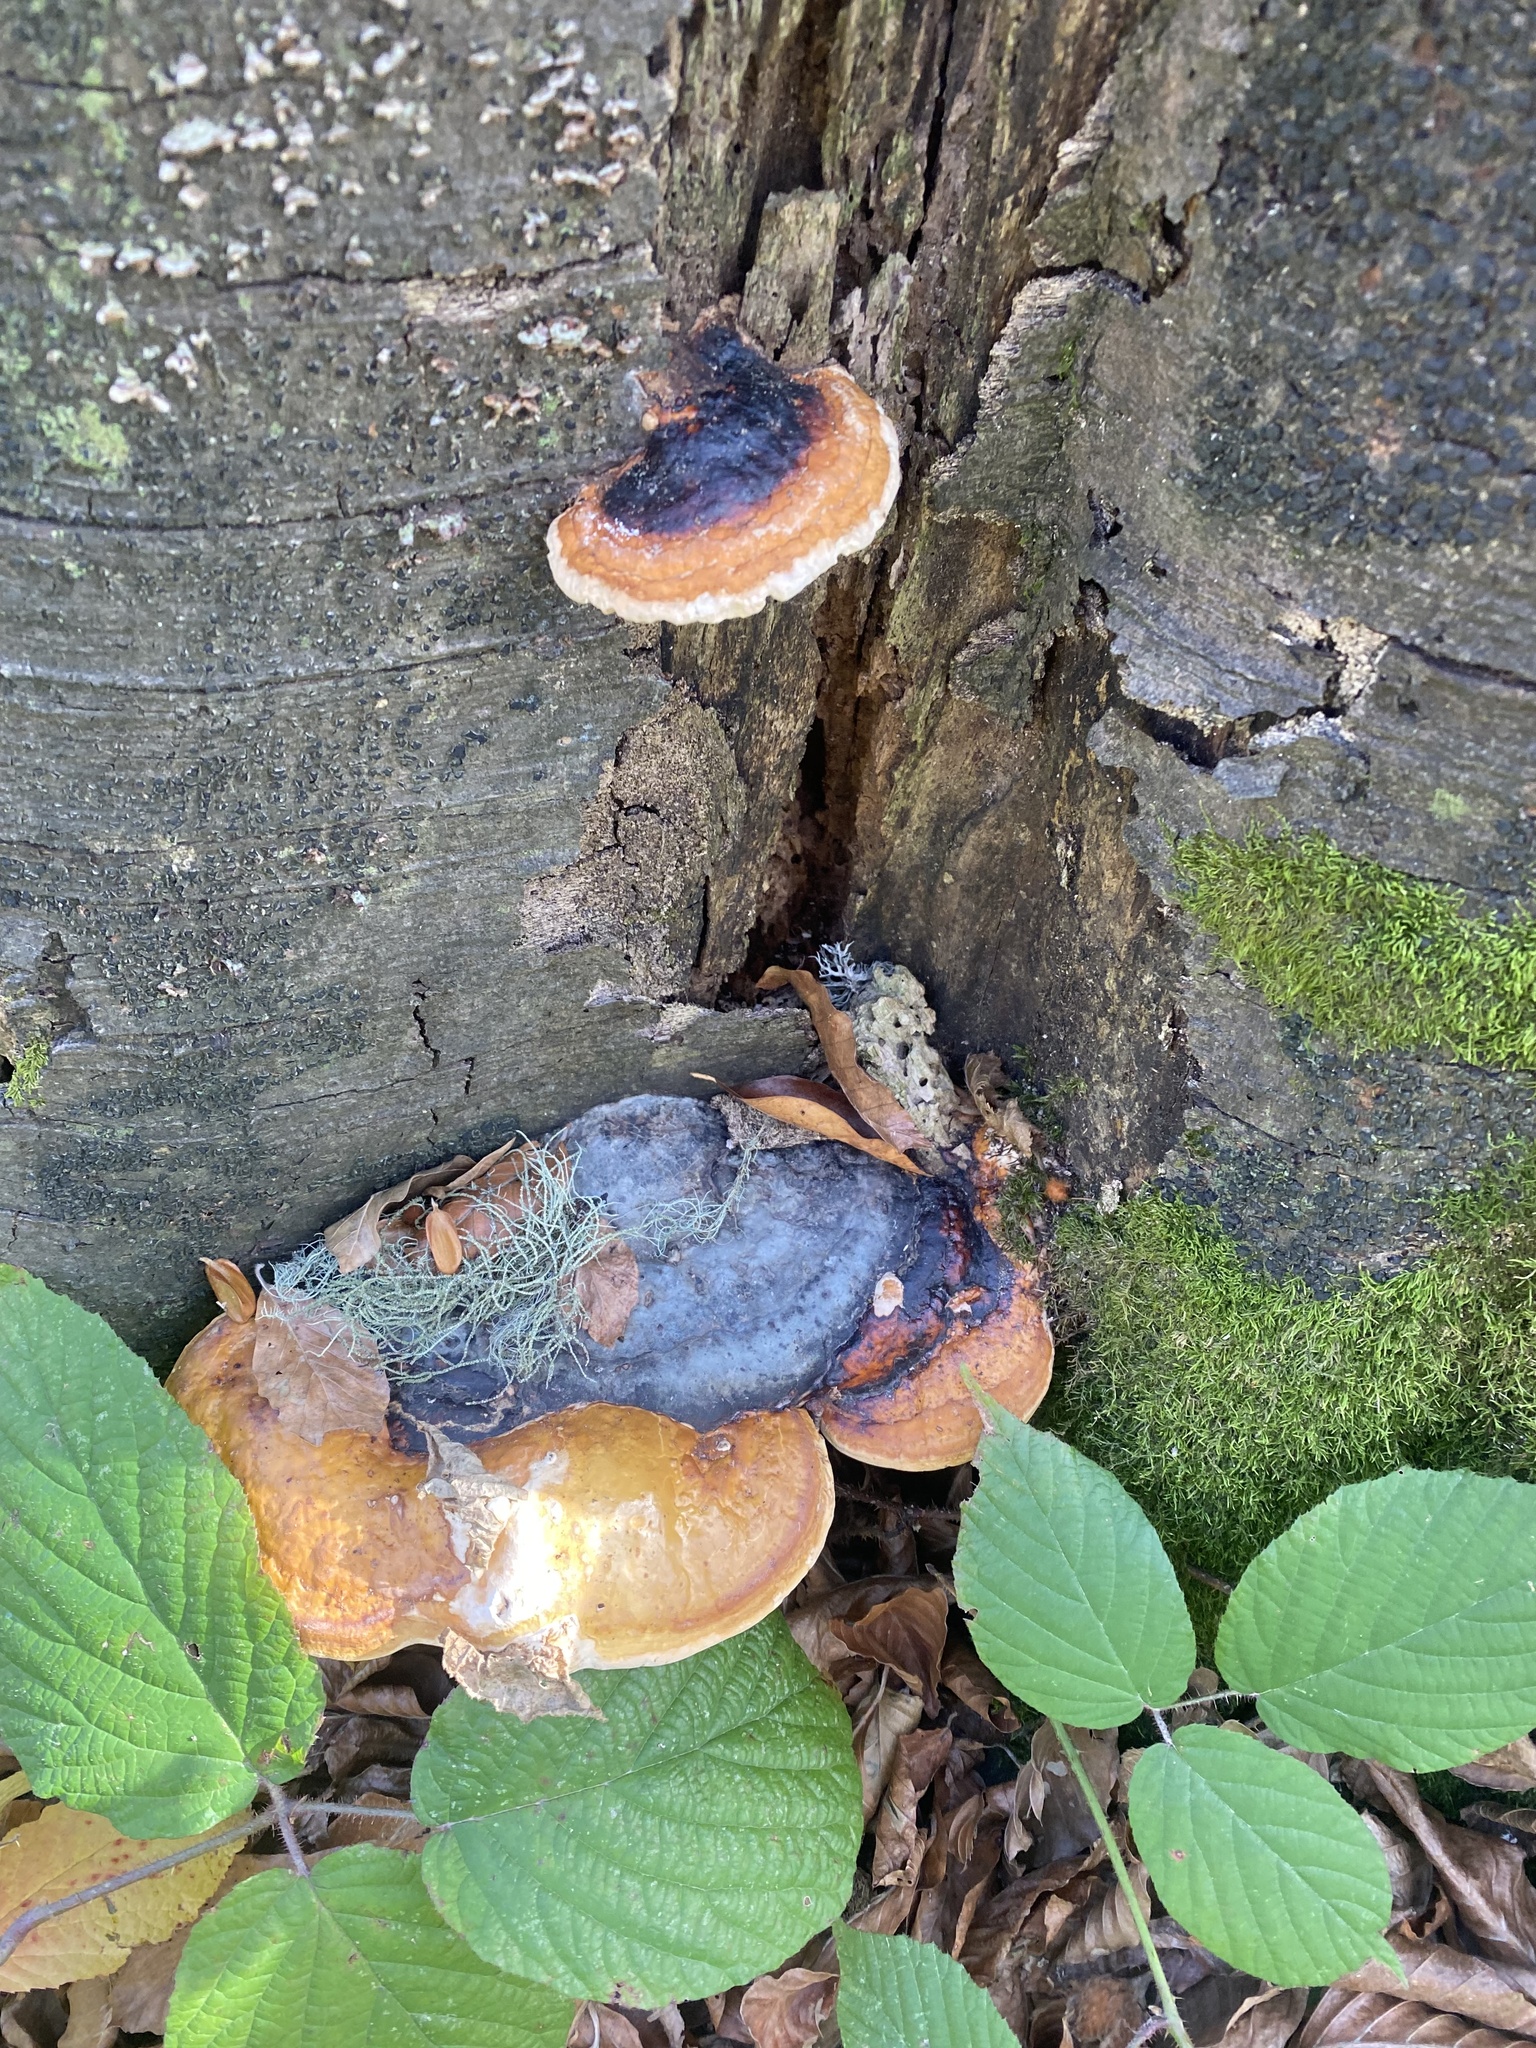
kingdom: Fungi
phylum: Basidiomycota
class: Agaricomycetes
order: Polyporales
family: Fomitopsidaceae
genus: Fomitopsis
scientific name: Fomitopsis pinicola
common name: Red-belted bracket
